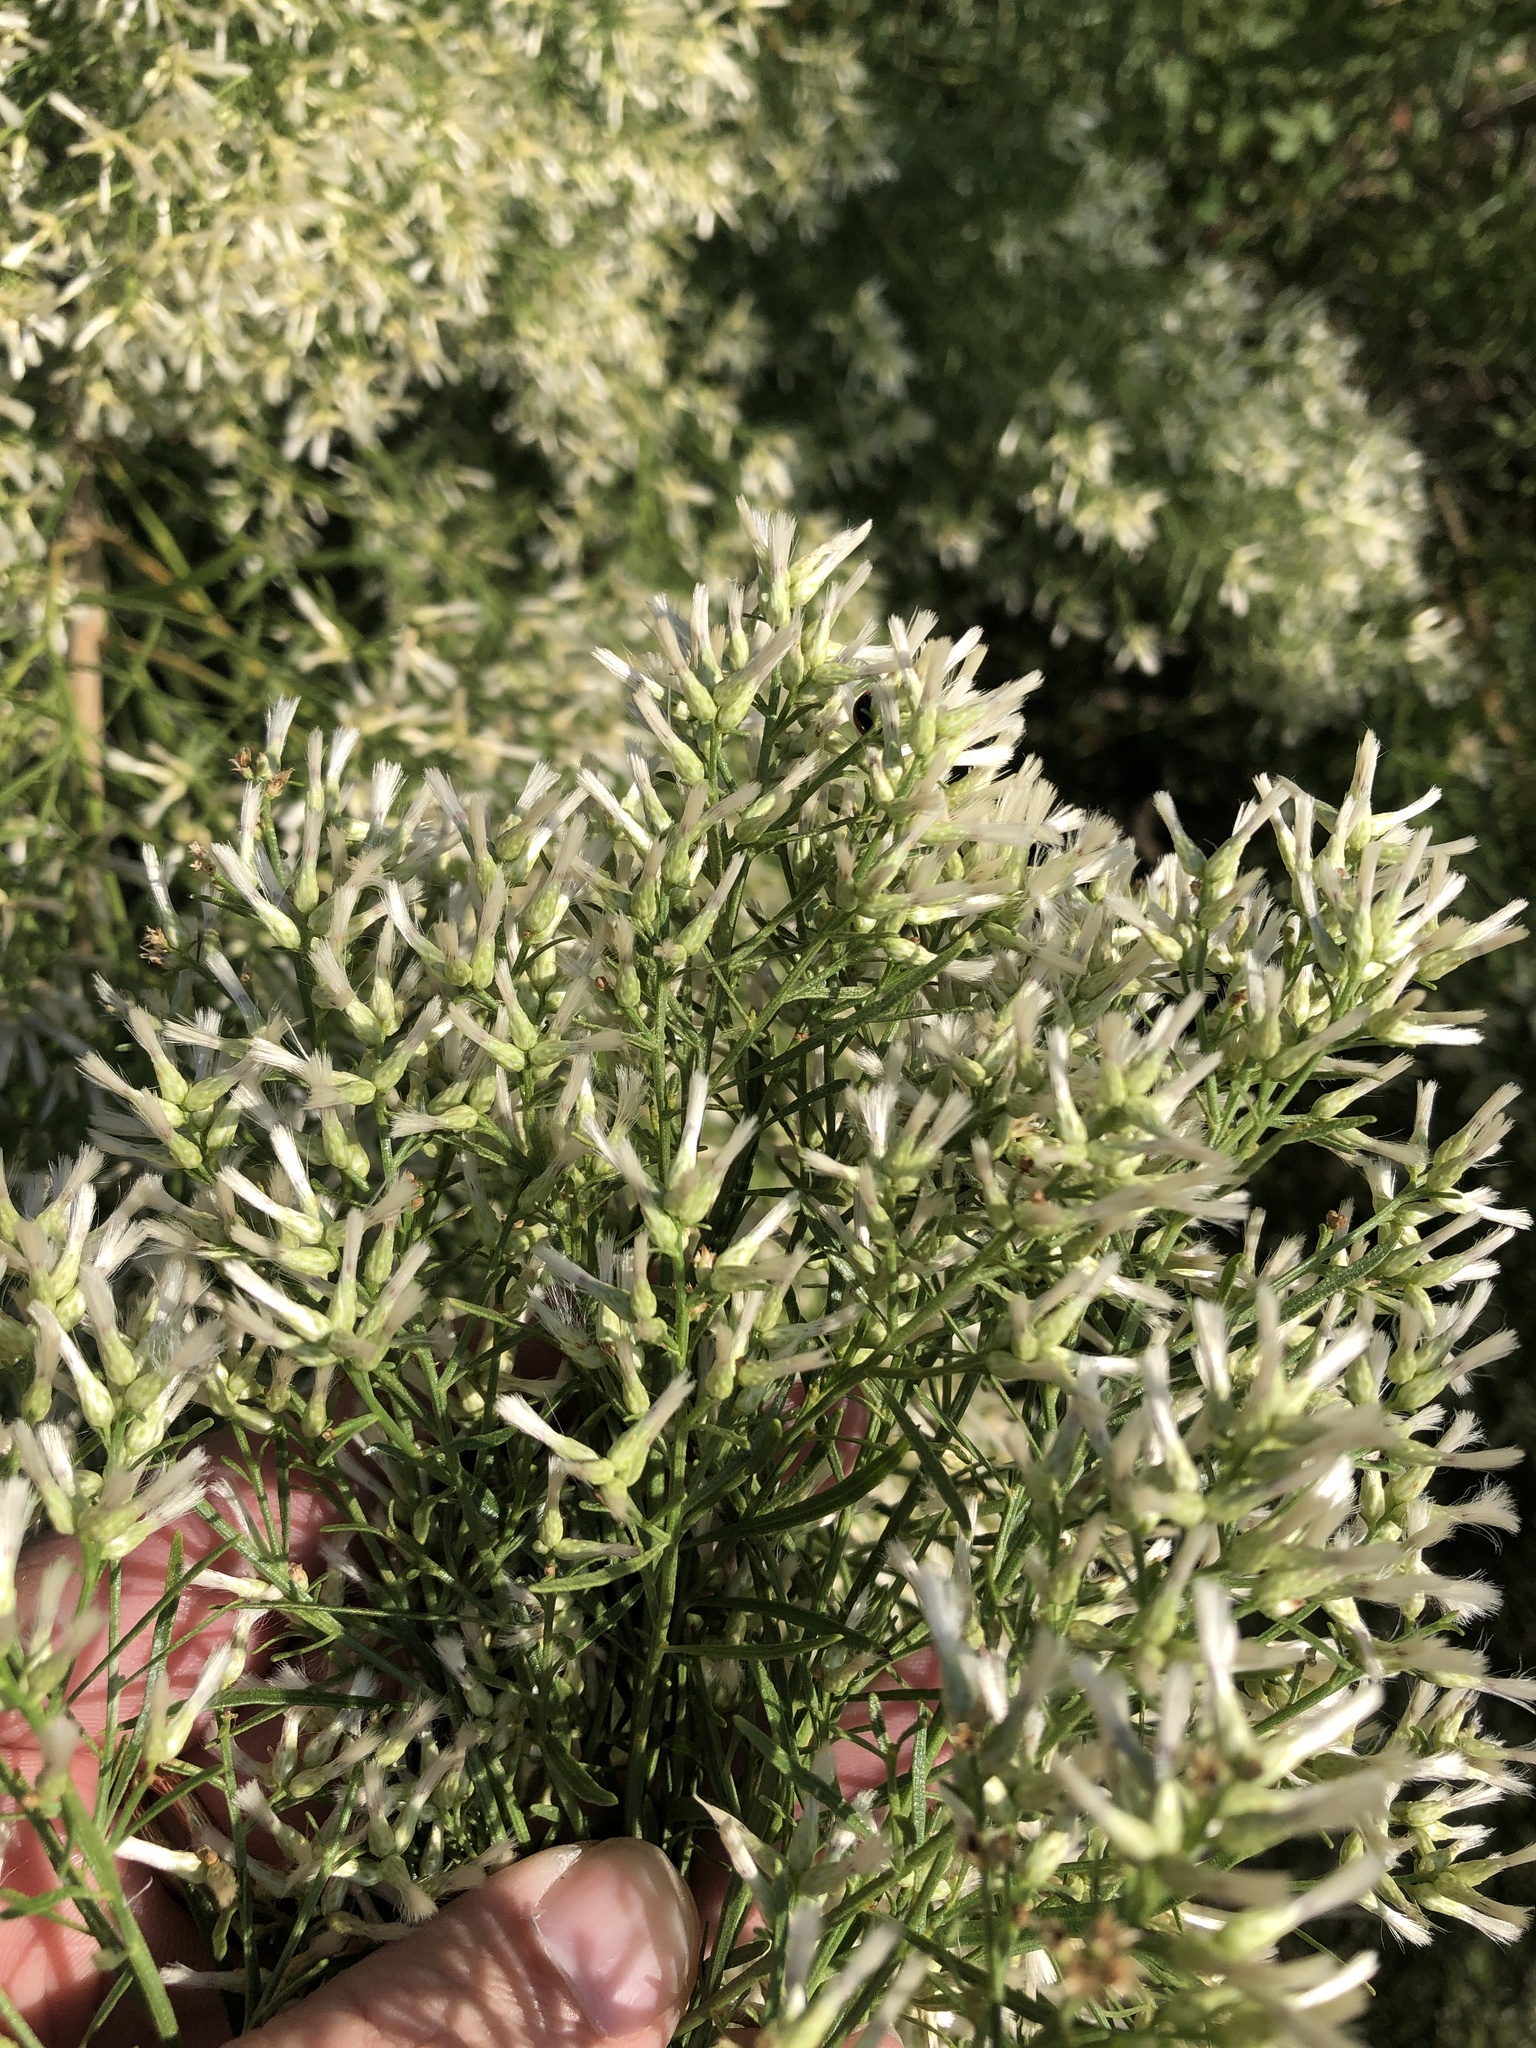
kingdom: Plantae
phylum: Tracheophyta
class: Magnoliopsida
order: Asterales
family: Asteraceae
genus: Baccharis
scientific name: Baccharis neglecta
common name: Roosevelt-weed
